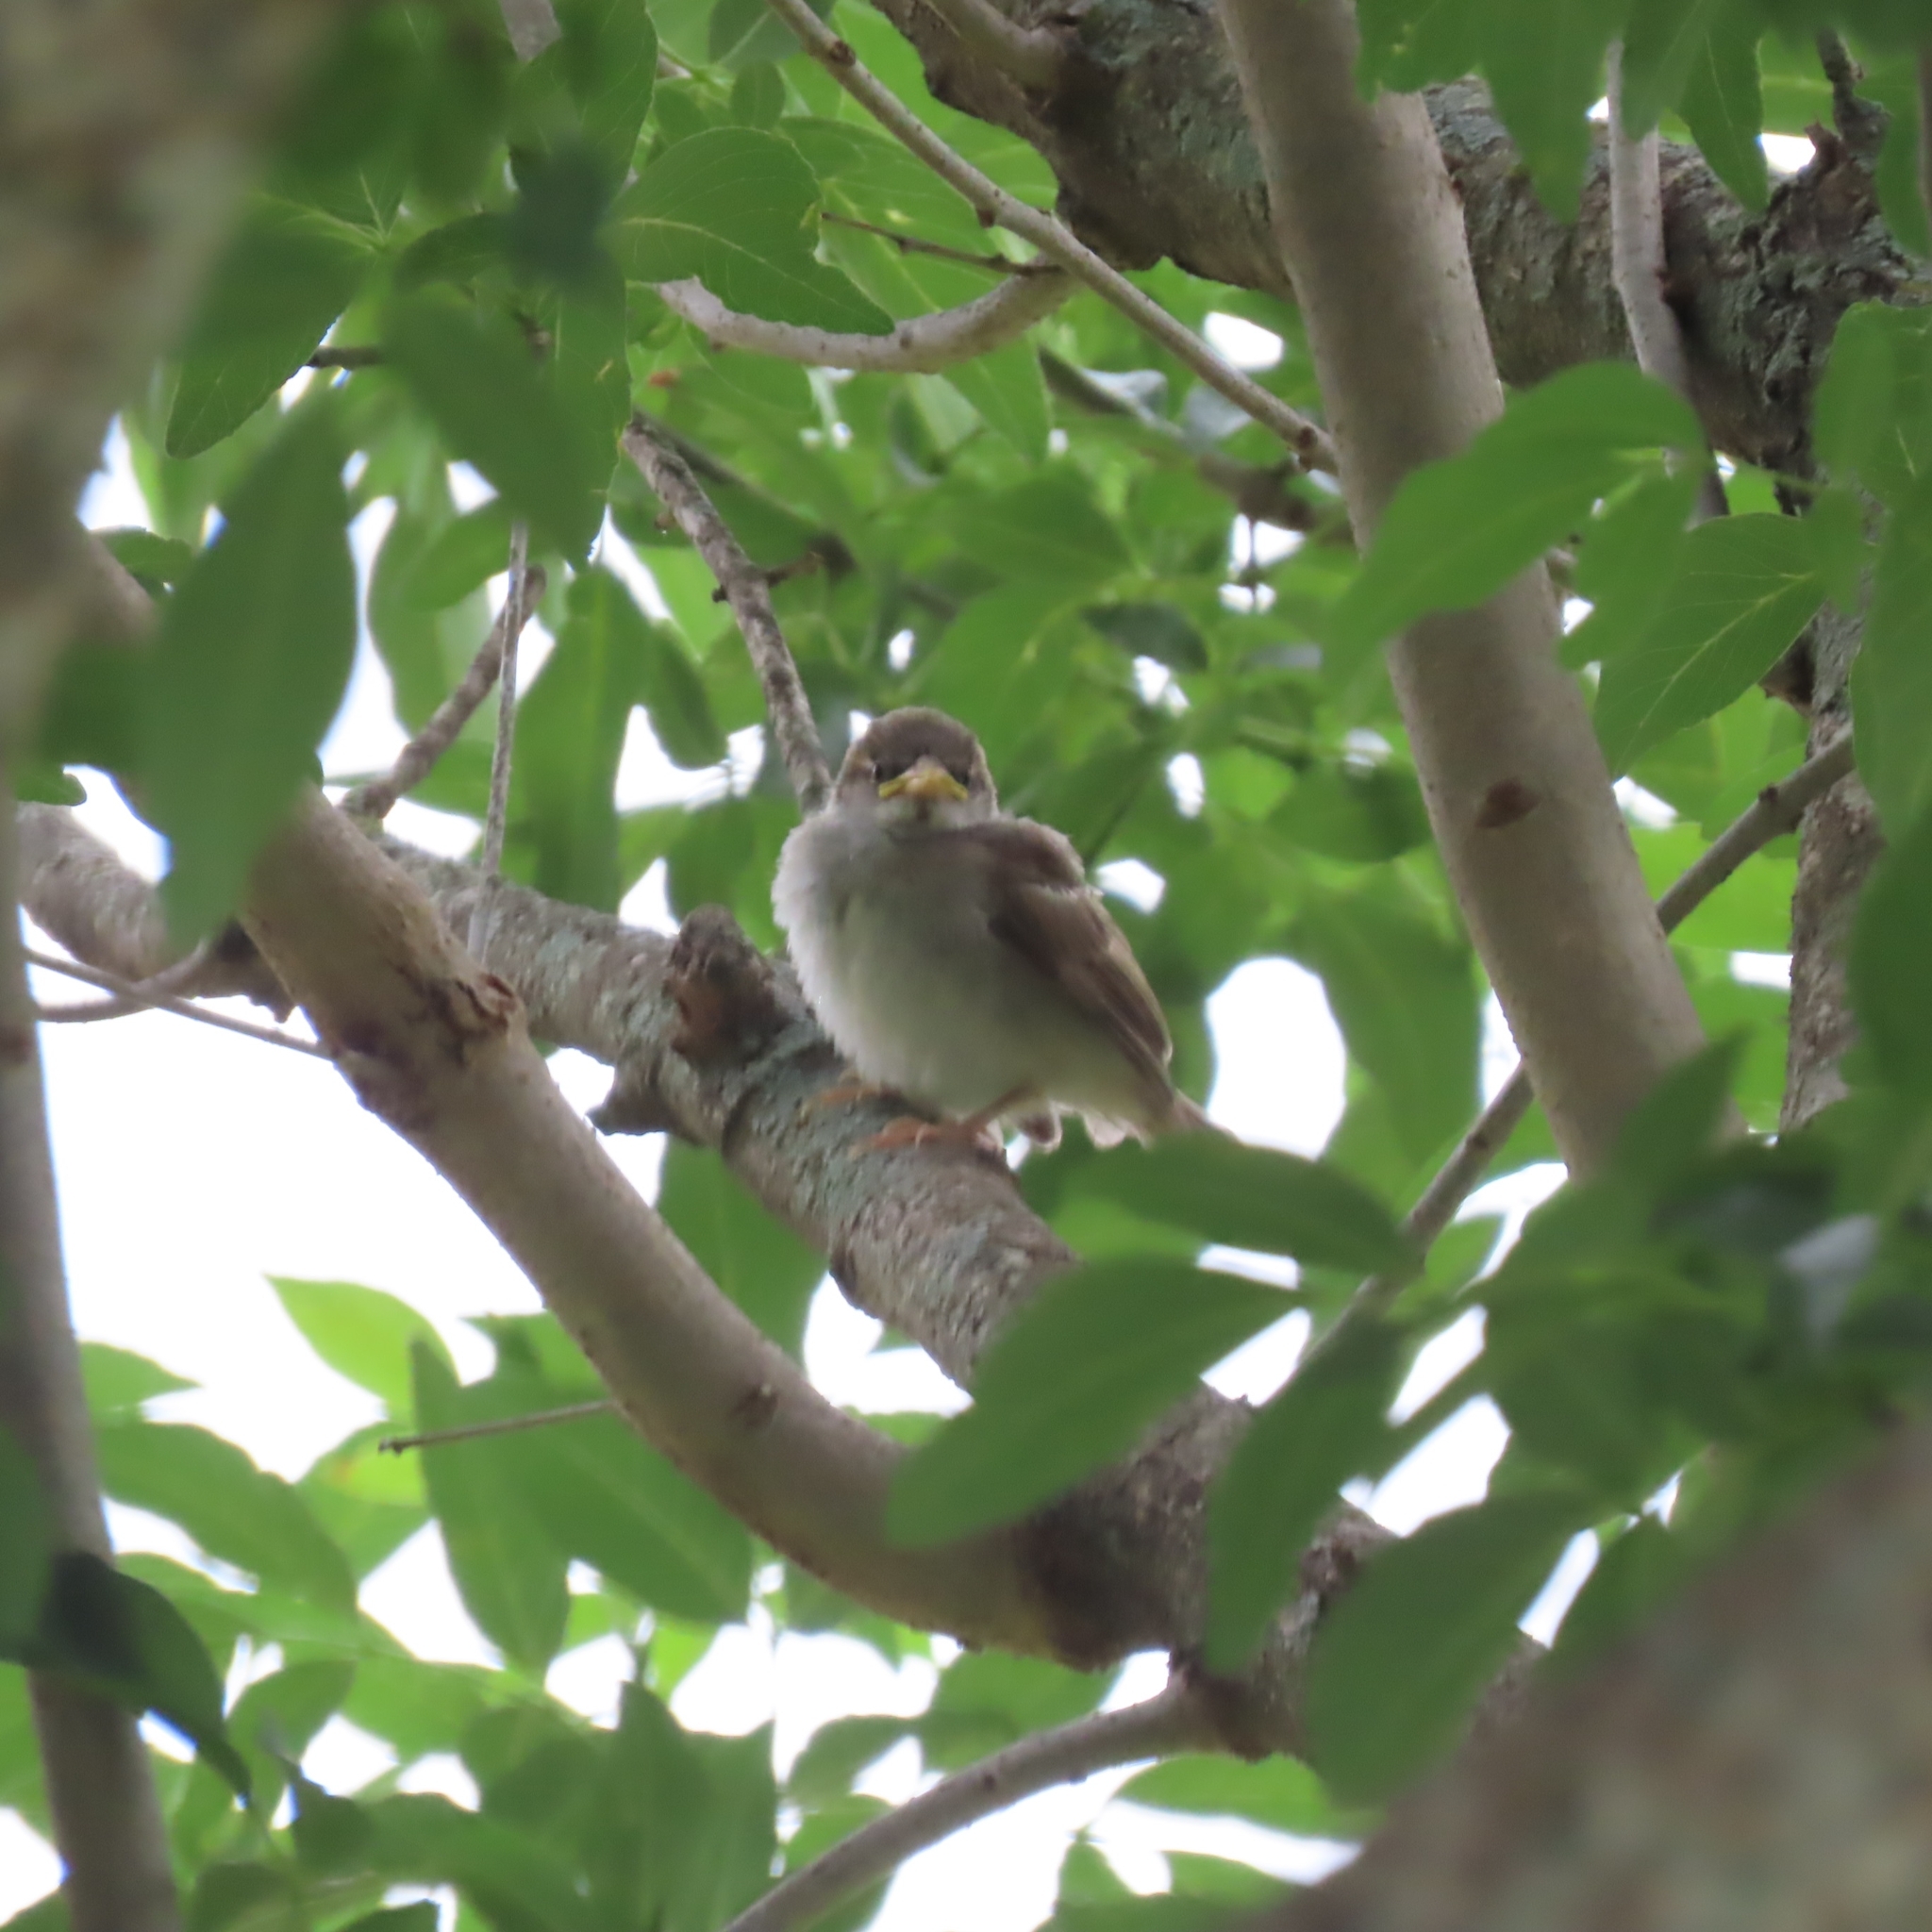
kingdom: Animalia
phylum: Chordata
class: Aves
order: Passeriformes
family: Passeridae
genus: Passer
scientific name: Passer domesticus
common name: House sparrow
